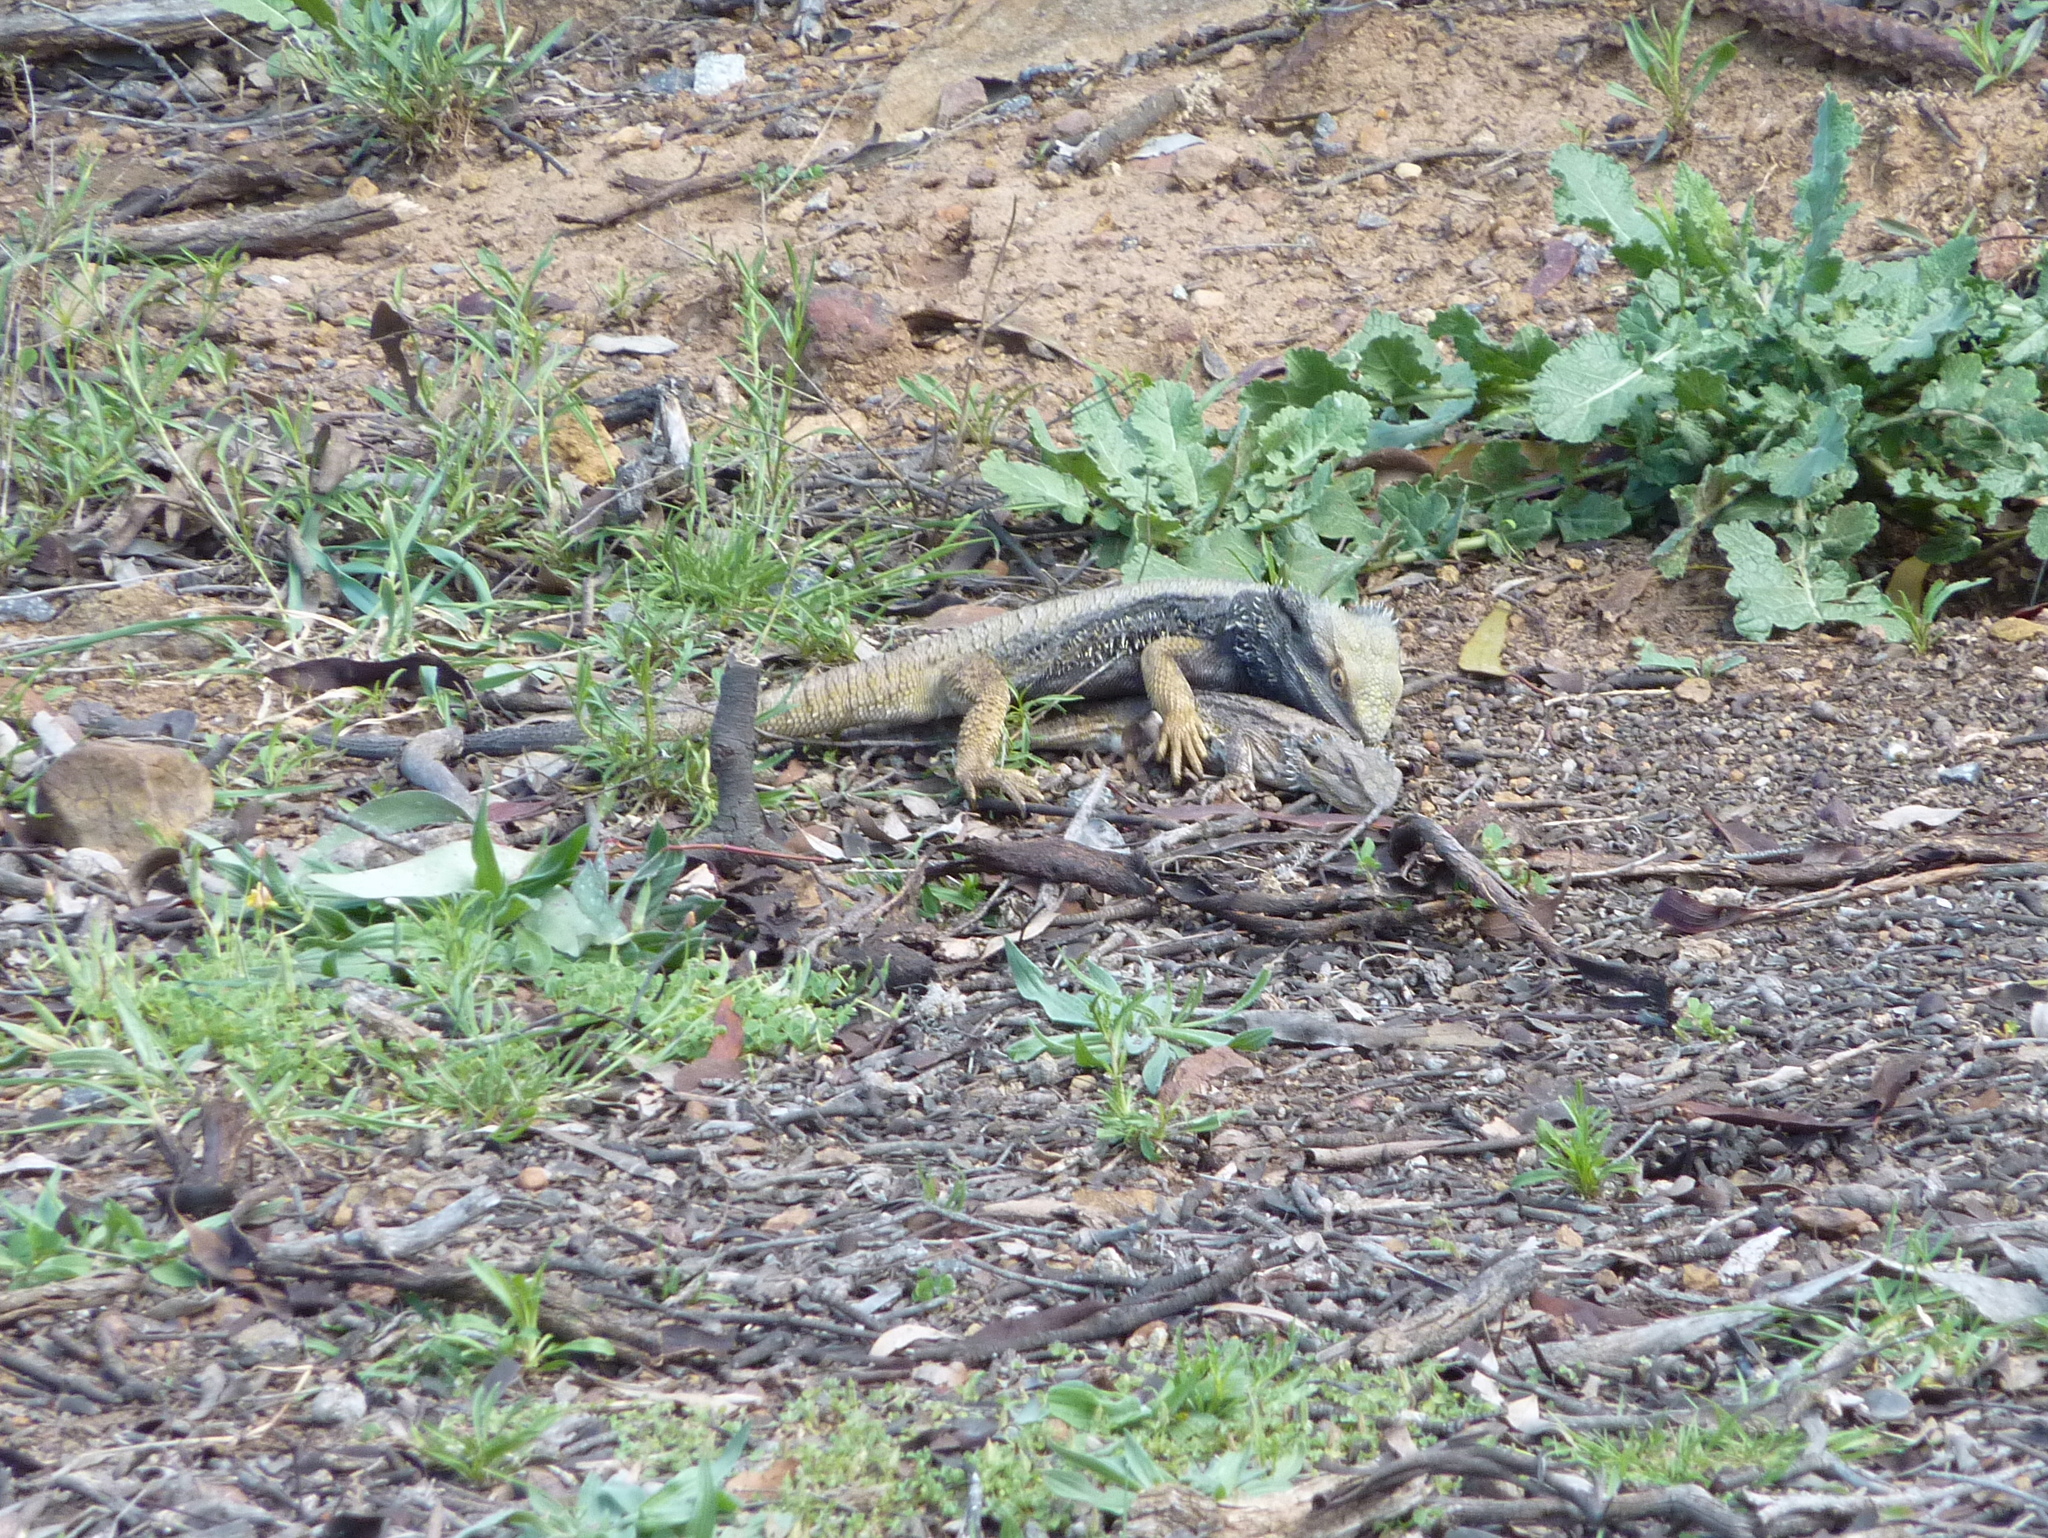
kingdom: Animalia
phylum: Chordata
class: Squamata
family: Agamidae
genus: Pogona
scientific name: Pogona barbata
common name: Bearded dragon
